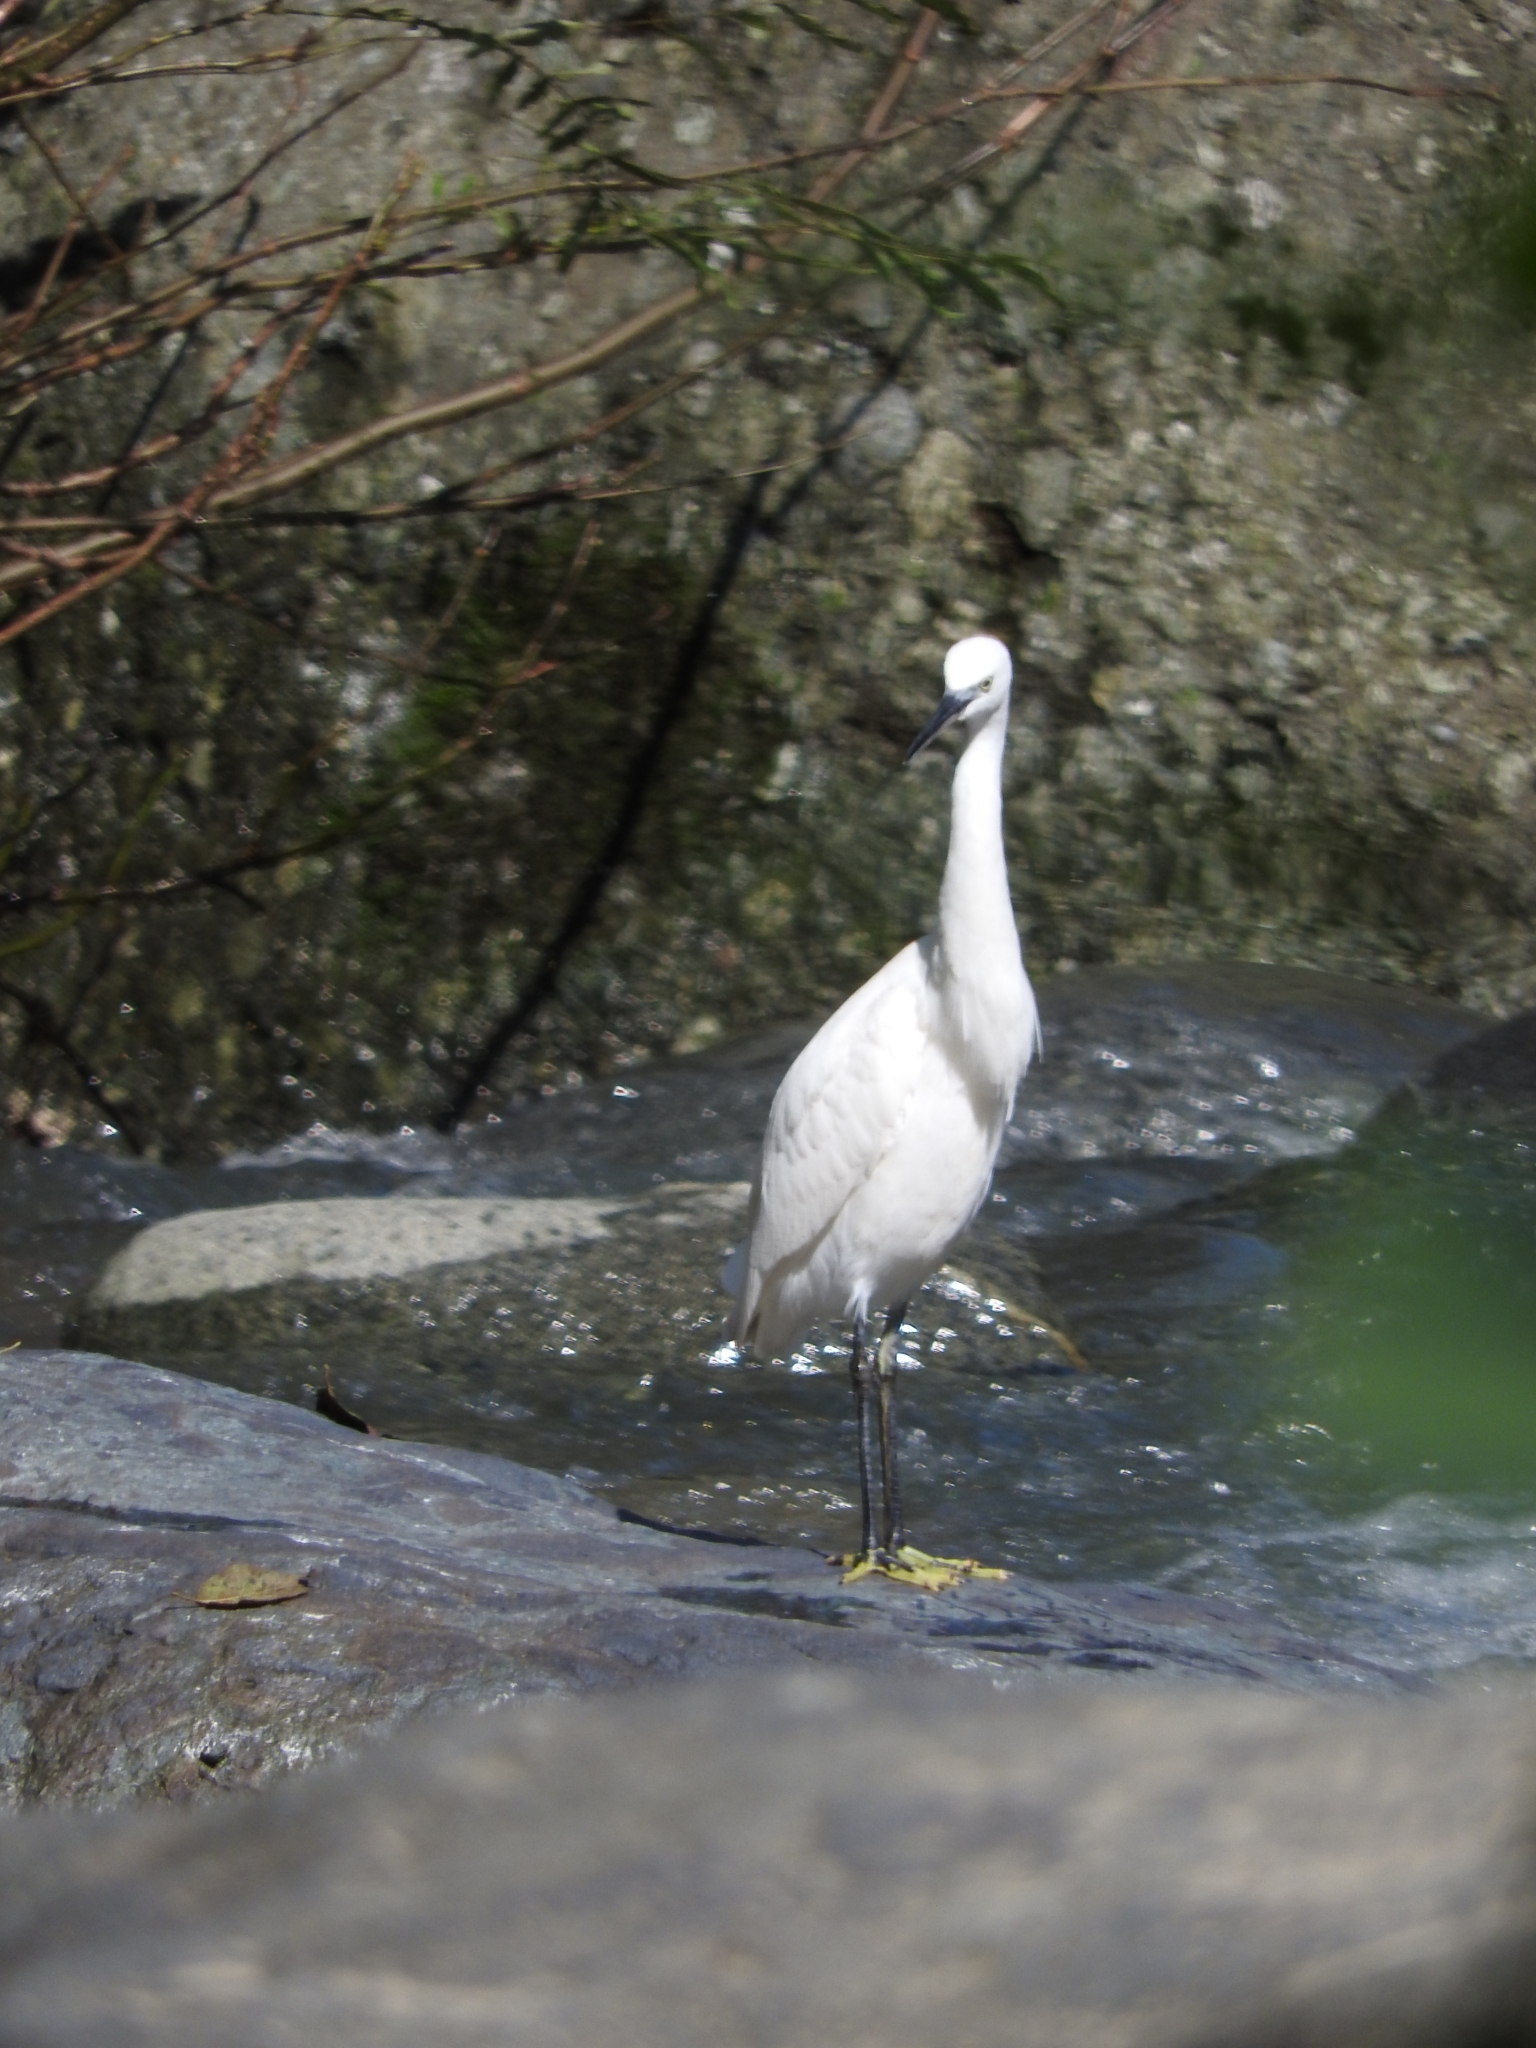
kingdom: Animalia
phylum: Chordata
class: Aves
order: Pelecaniformes
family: Ardeidae
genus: Egretta
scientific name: Egretta garzetta
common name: Little egret
